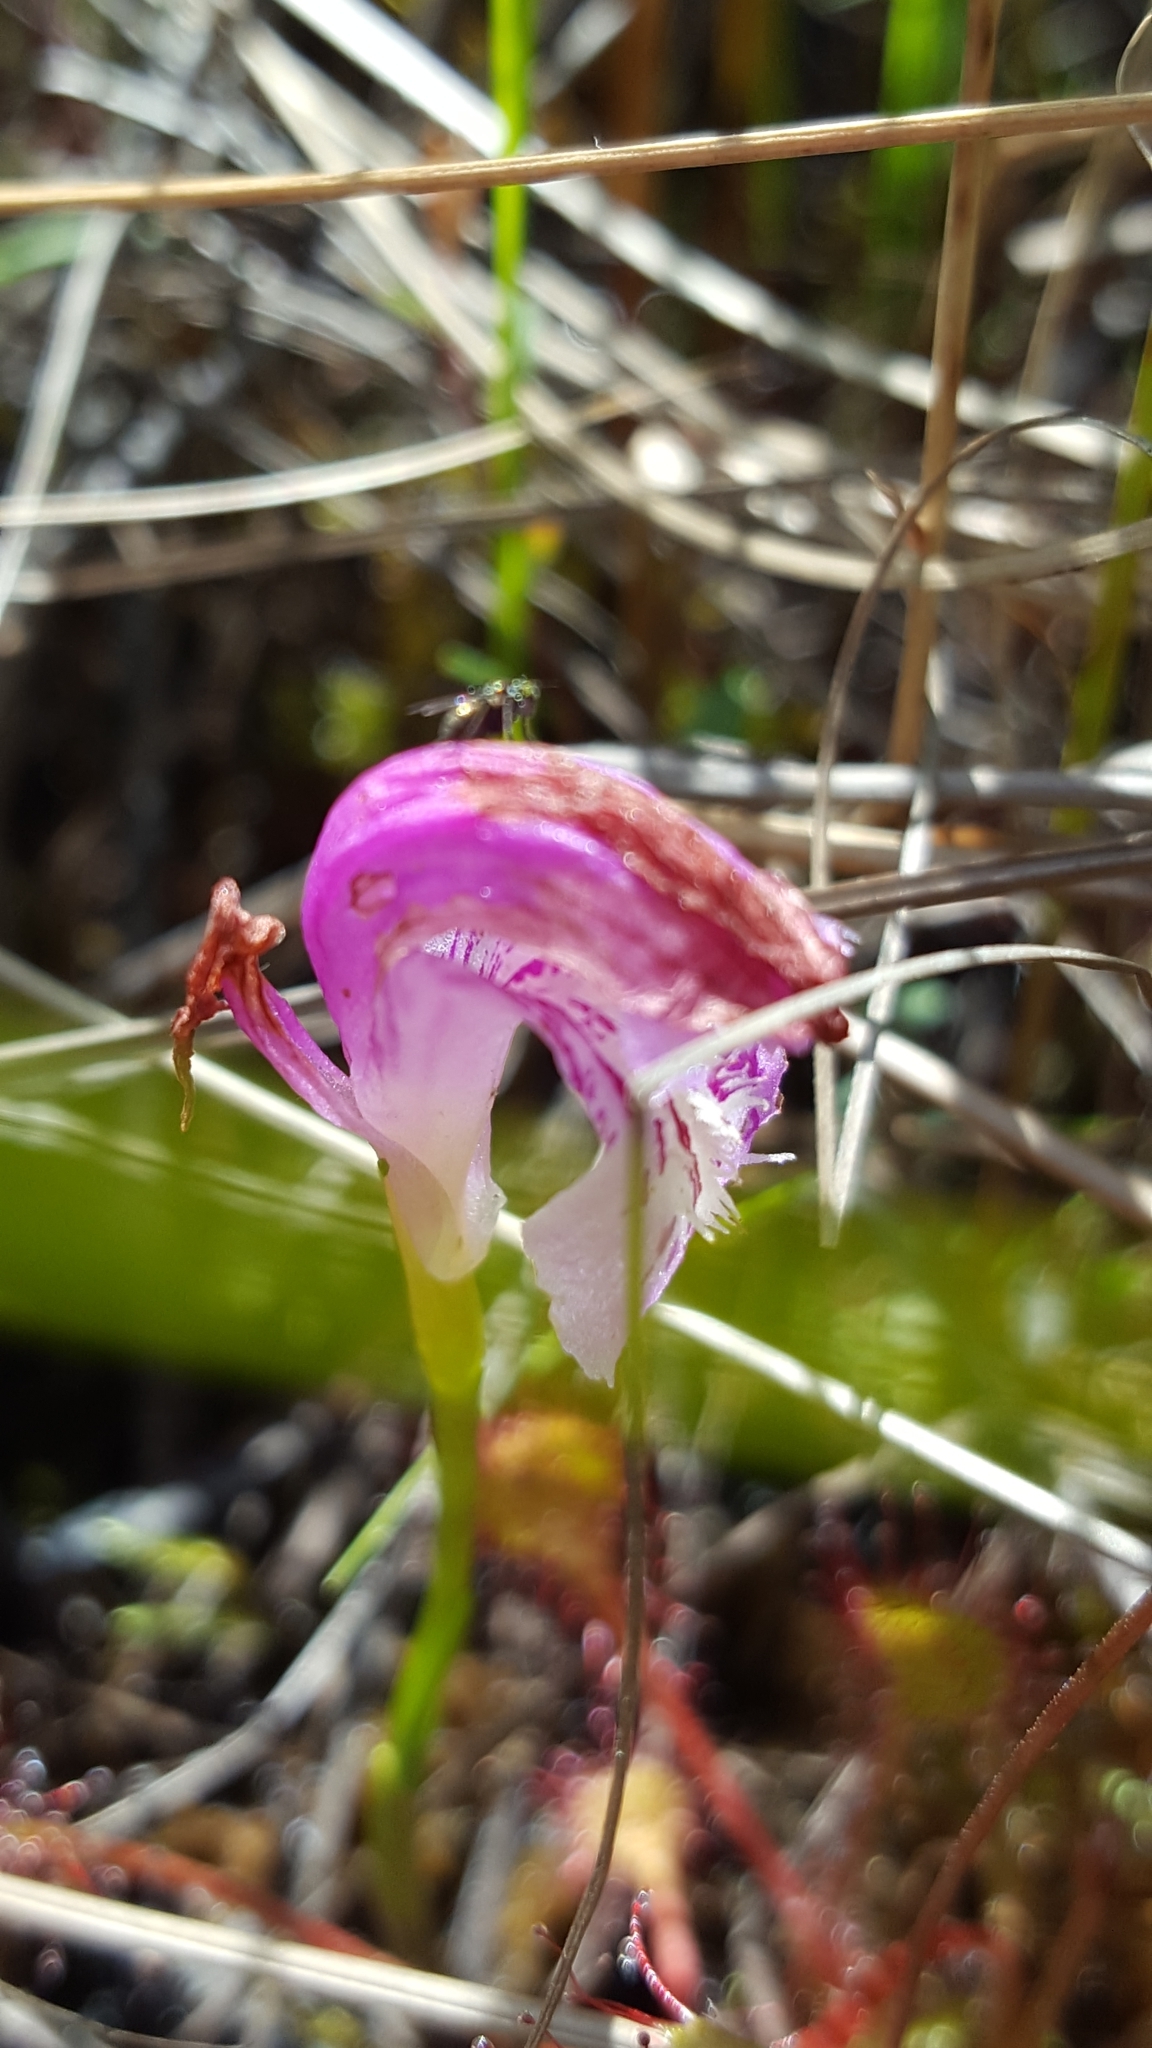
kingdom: Plantae
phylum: Tracheophyta
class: Liliopsida
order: Asparagales
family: Orchidaceae
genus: Arethusa
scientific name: Arethusa bulbosa
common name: Arethusa
